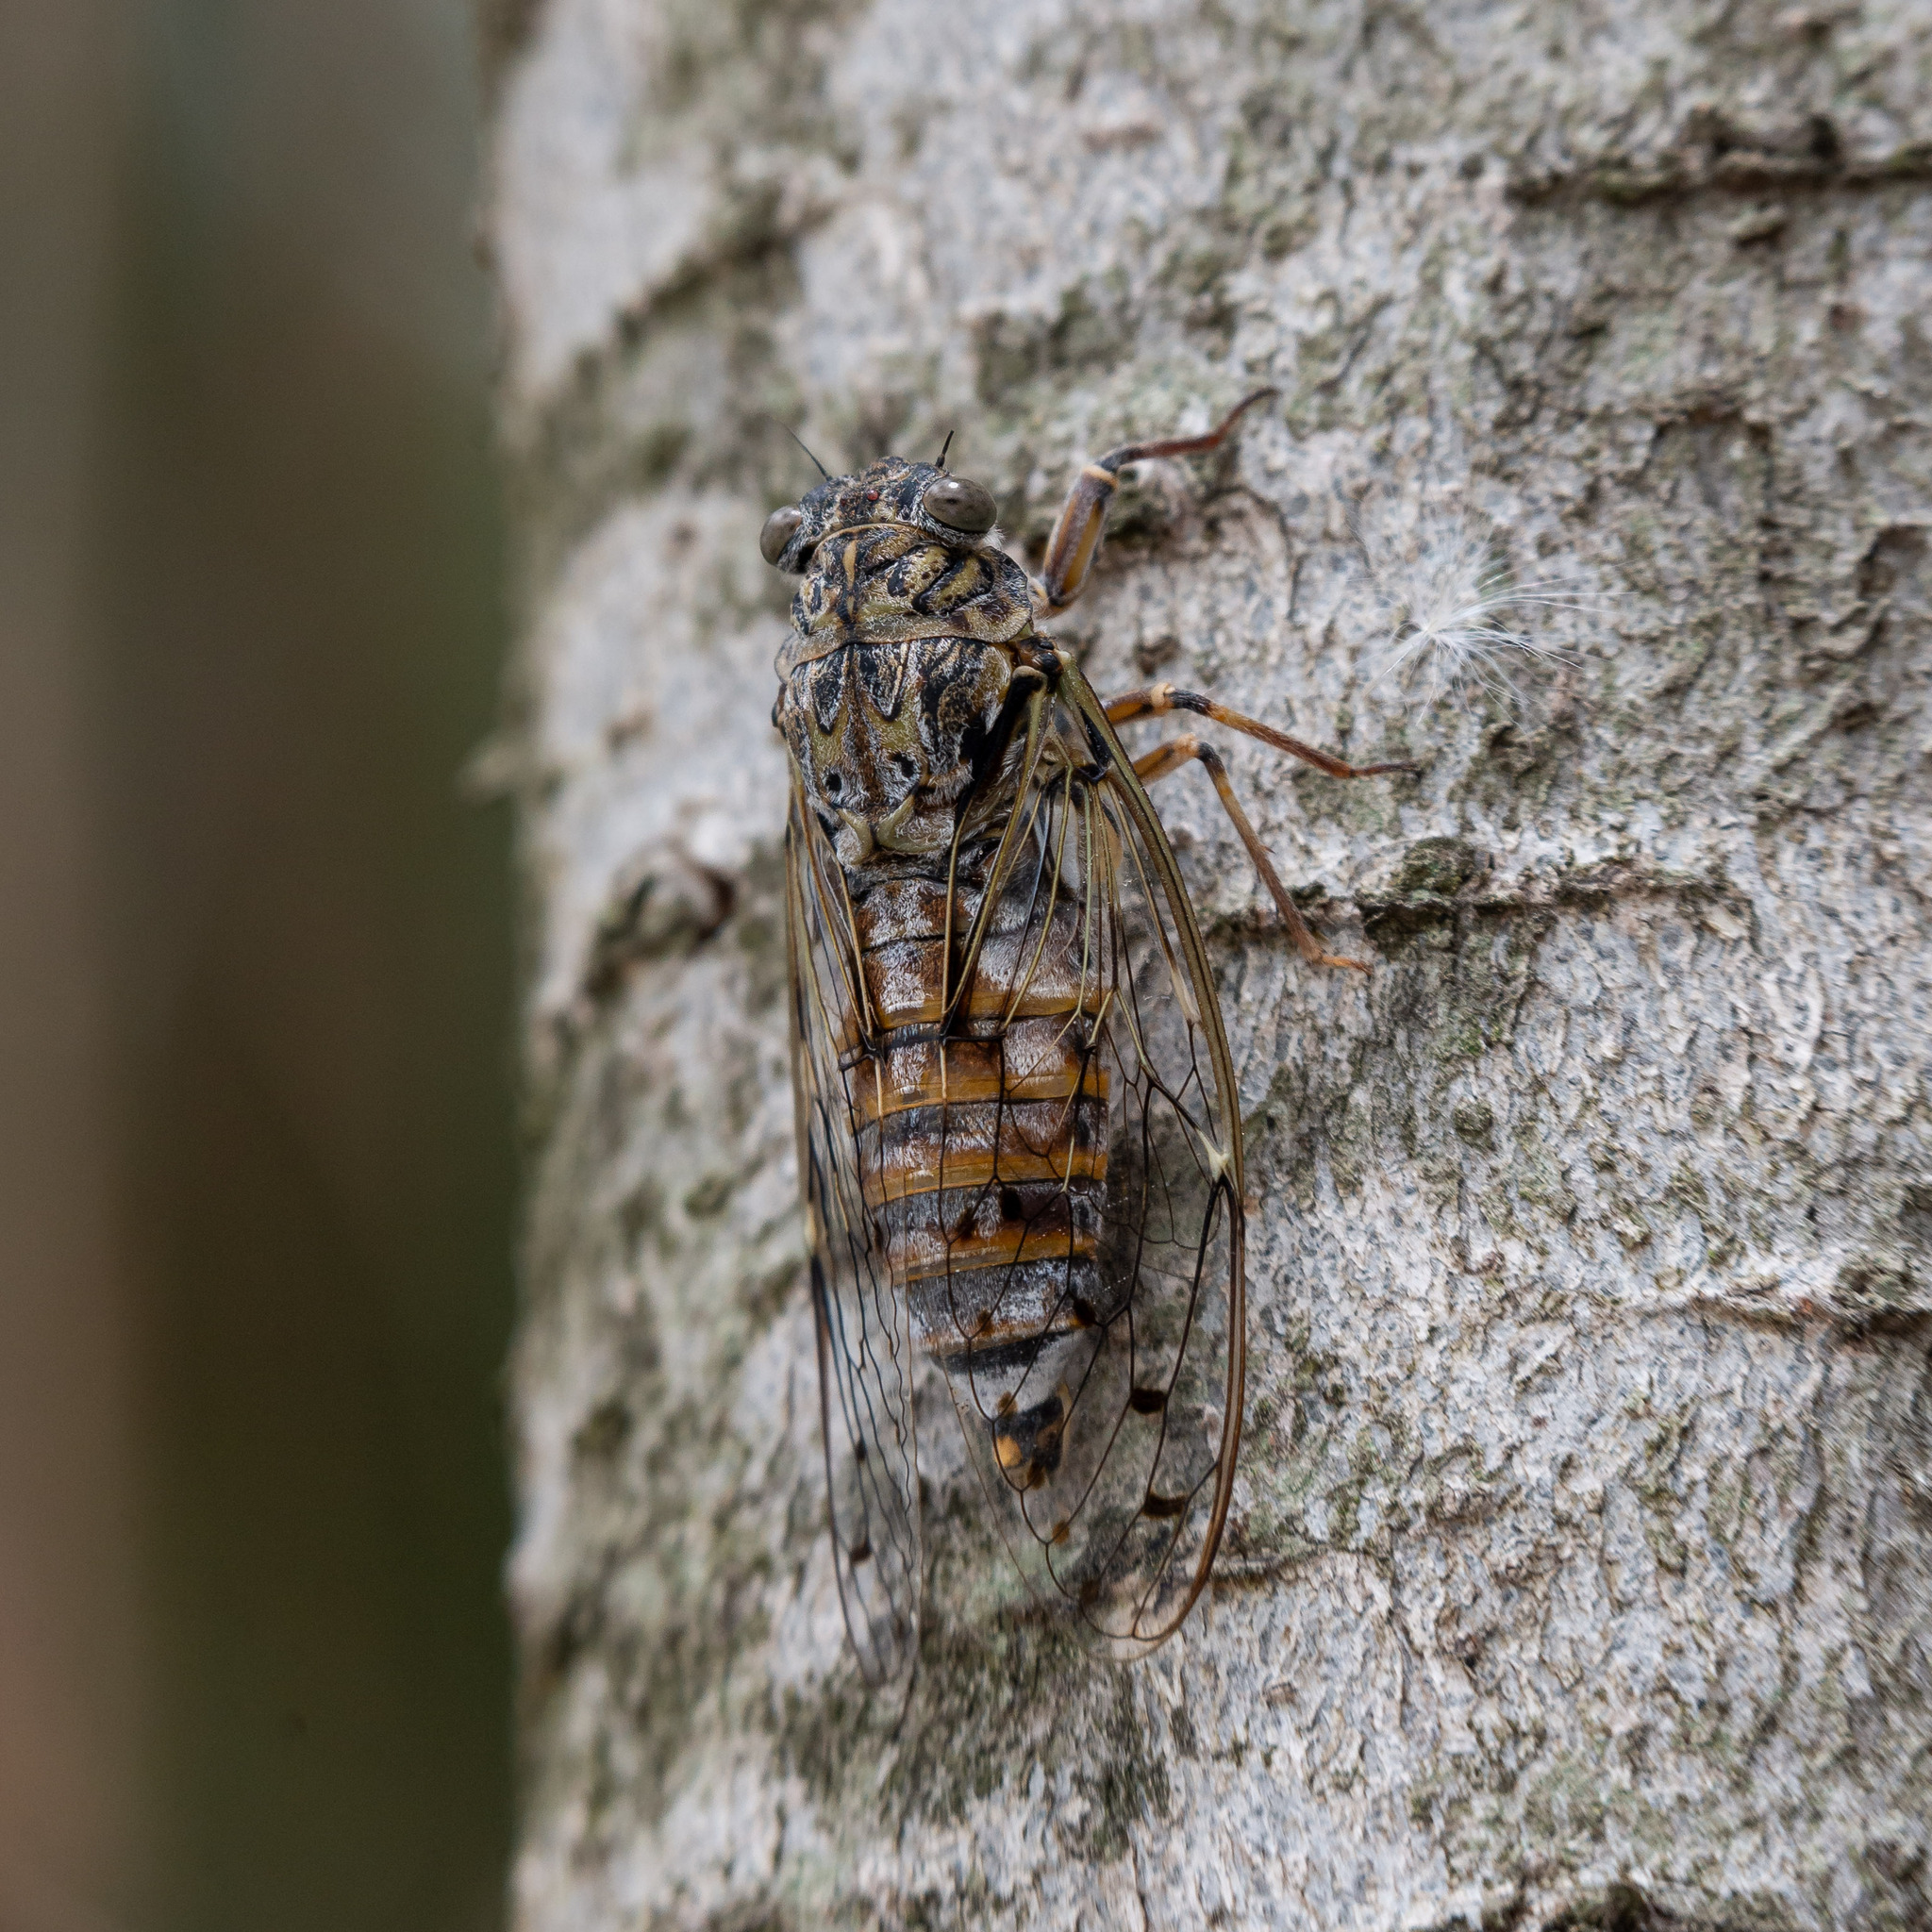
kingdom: Animalia
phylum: Arthropoda
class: Insecta
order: Hemiptera
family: Cicadidae
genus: Cicada
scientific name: Cicada orni
